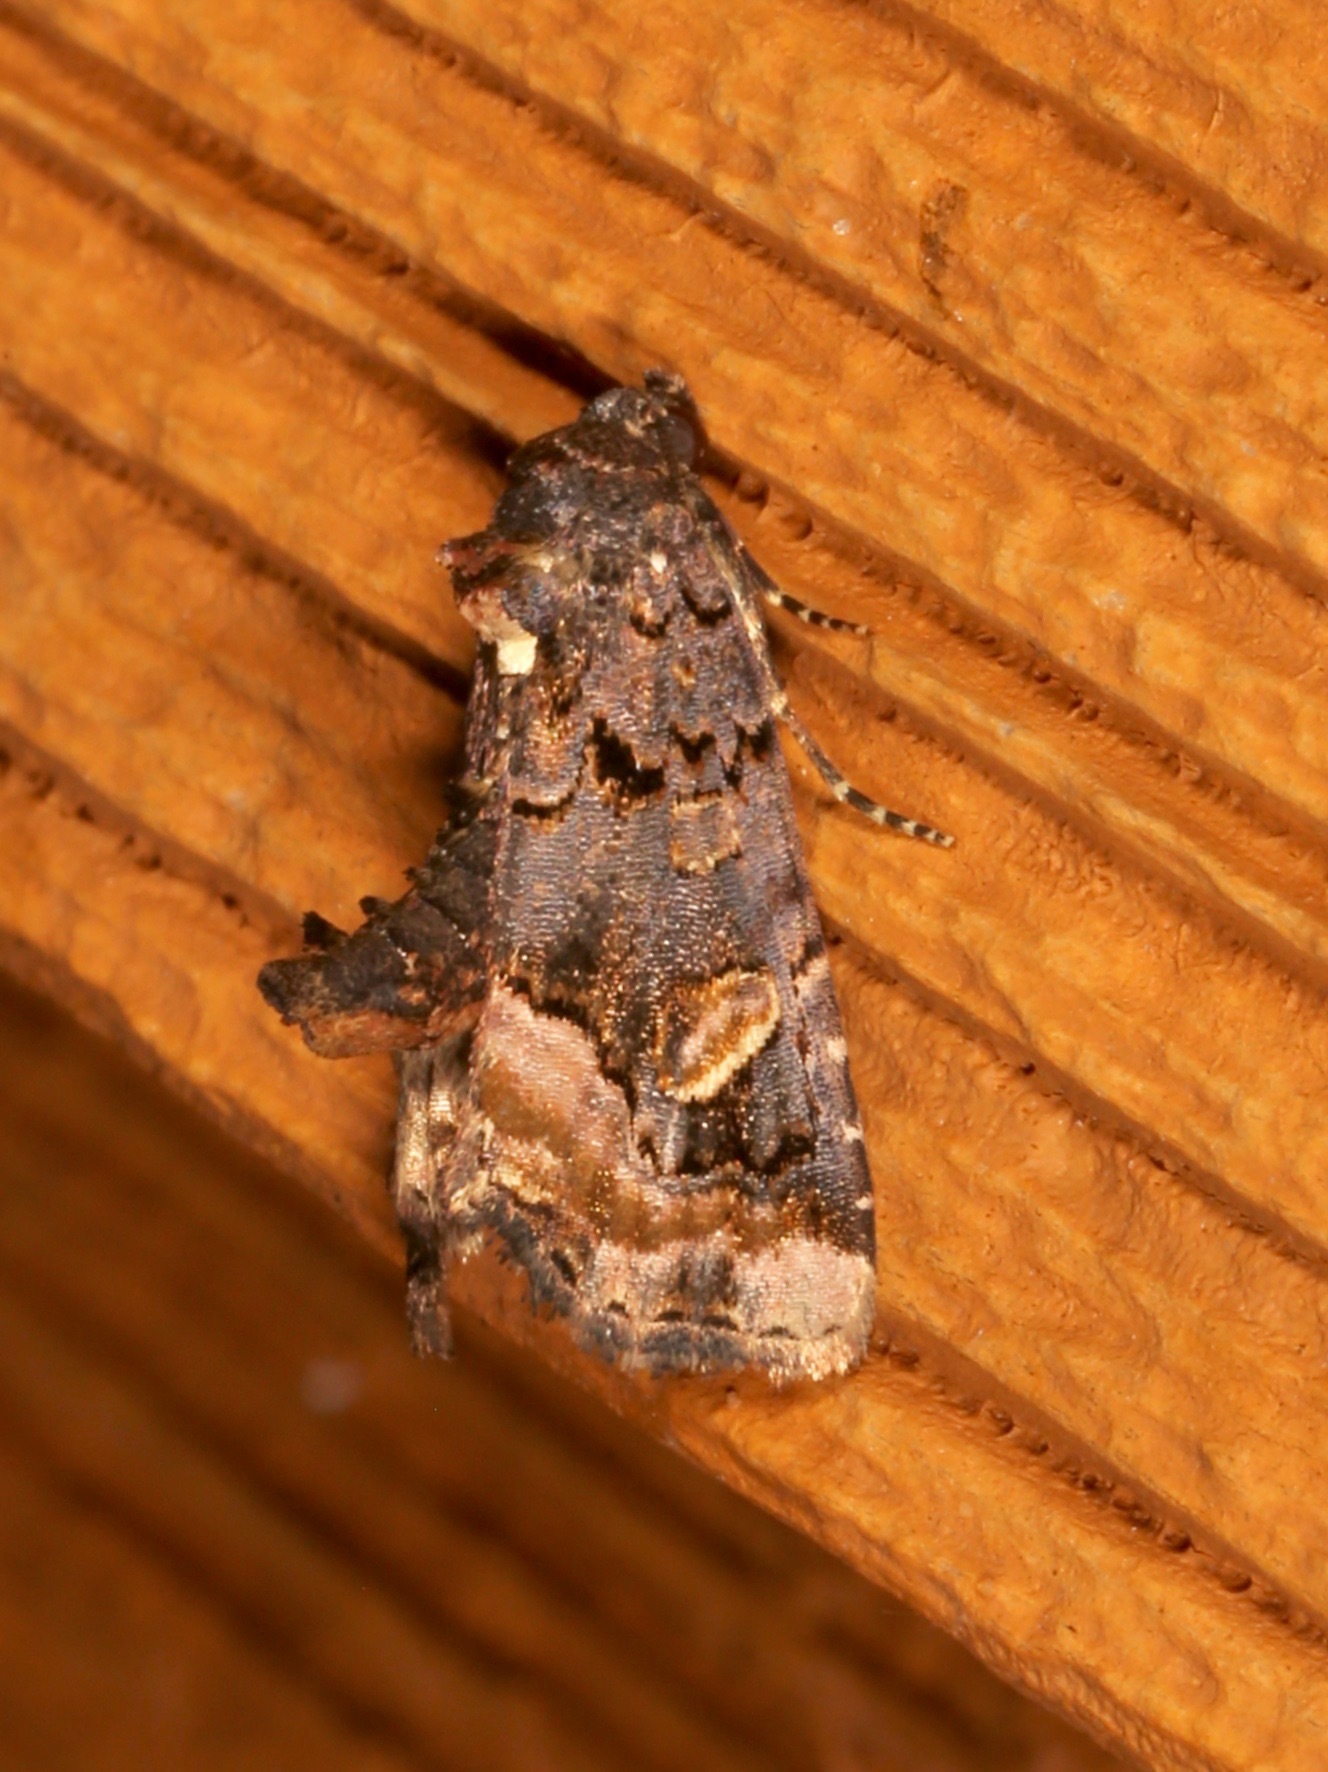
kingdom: Animalia
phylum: Arthropoda
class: Insecta
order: Lepidoptera
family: Noctuidae
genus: Homophoberia
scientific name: Homophoberia apicosa
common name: Black wedge-spot
